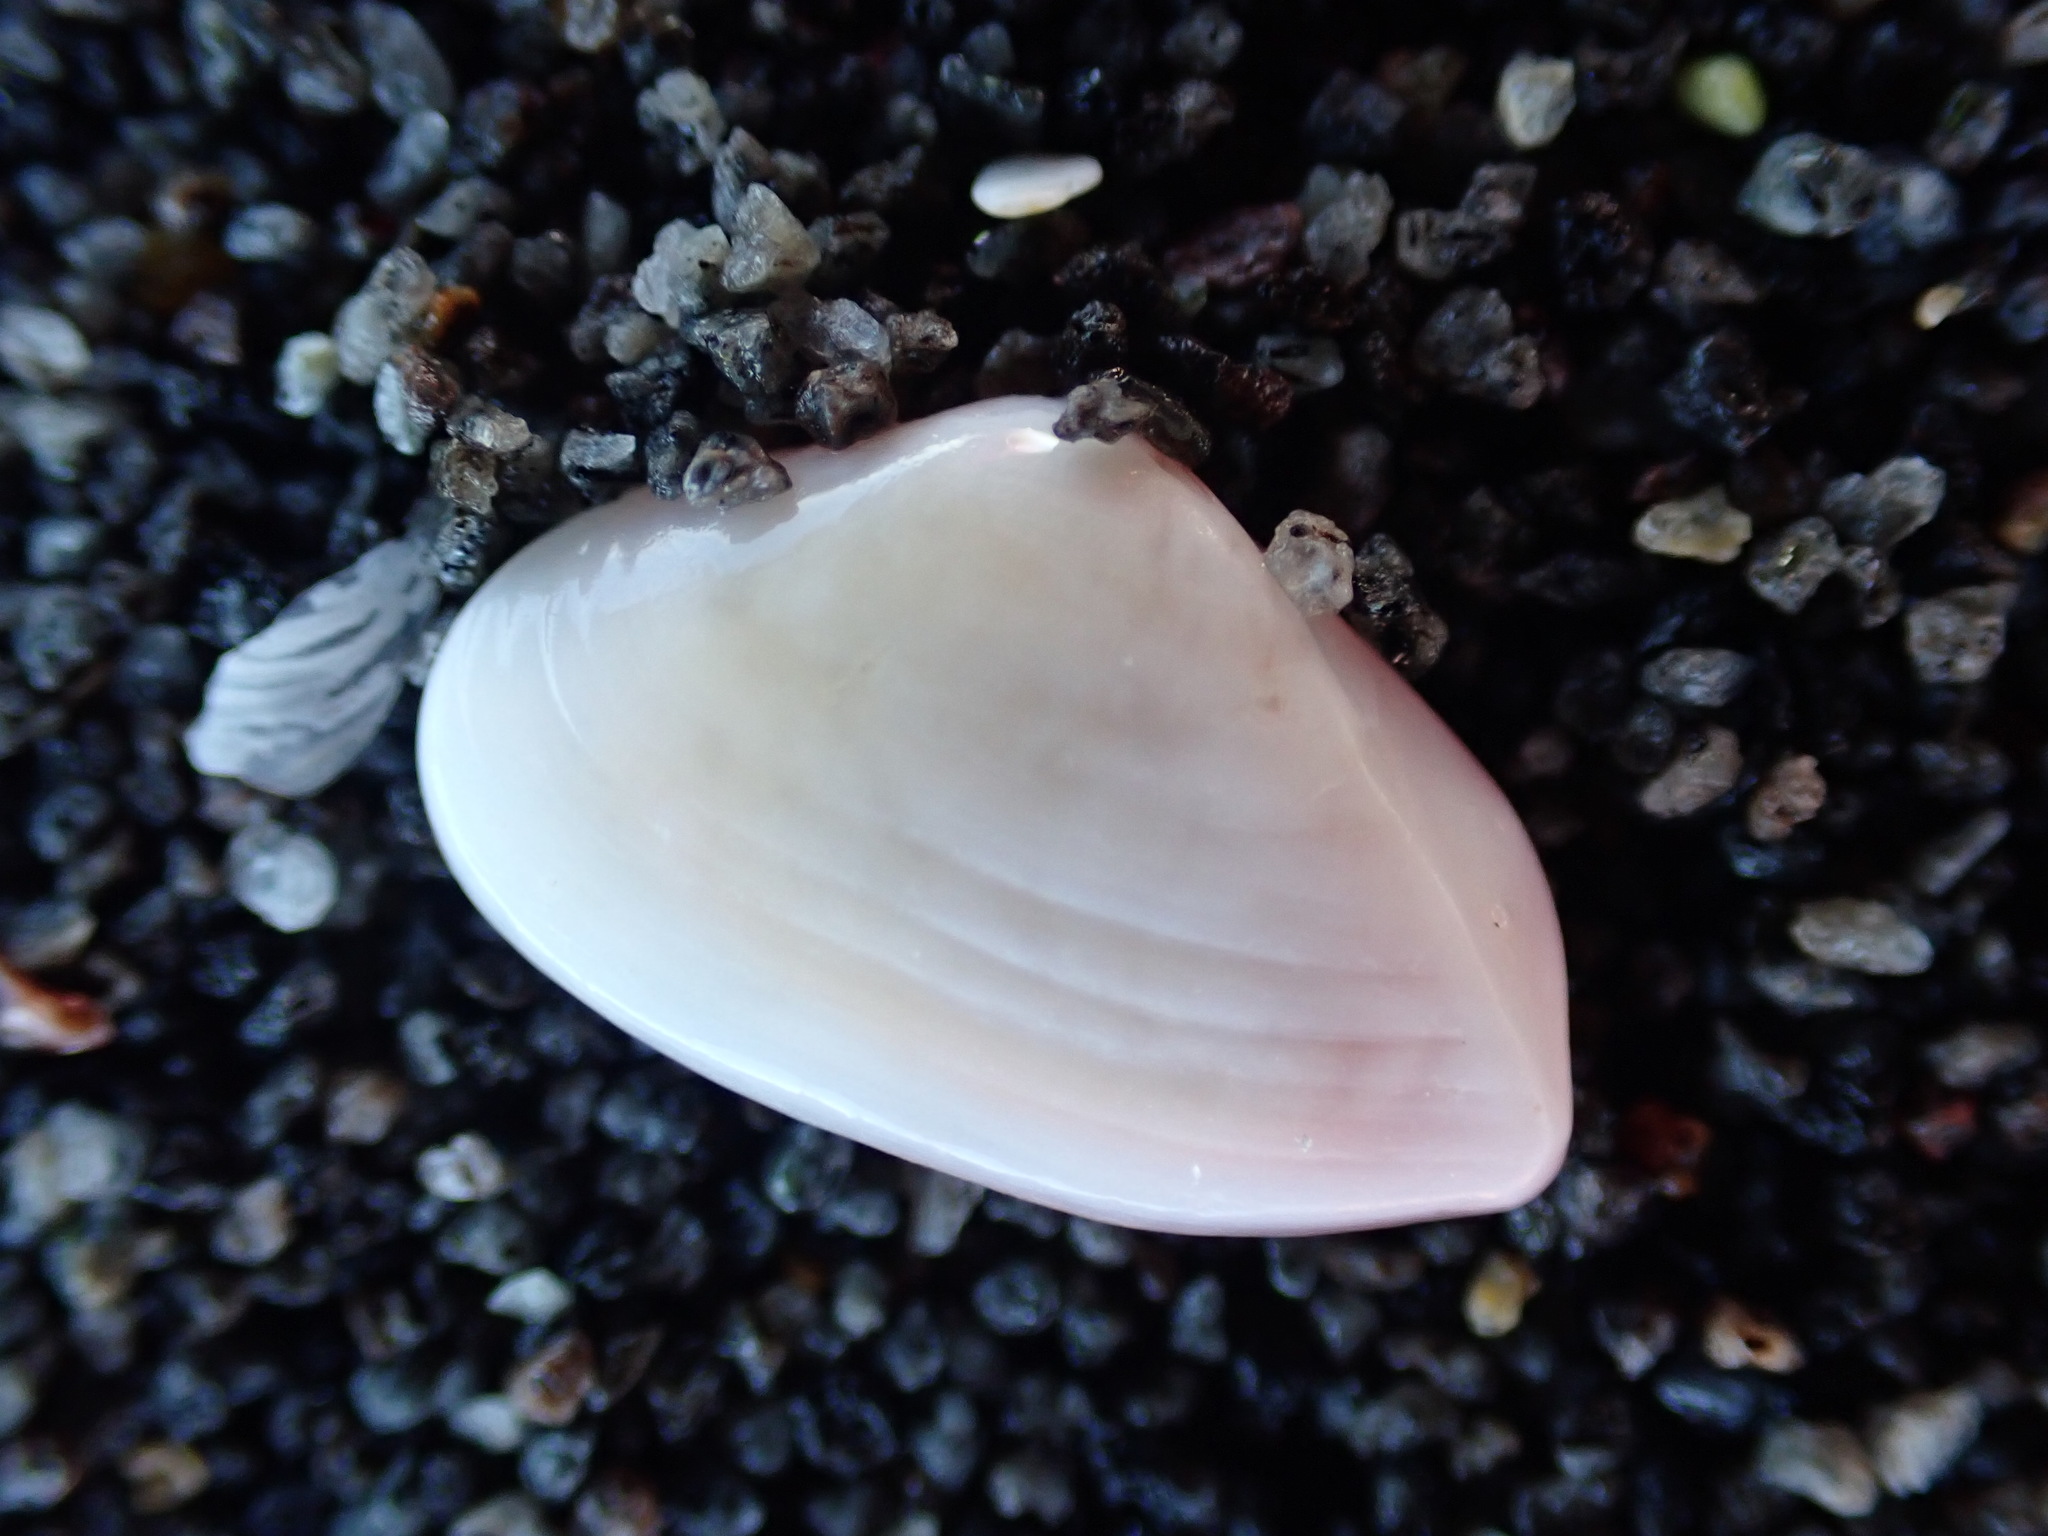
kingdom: Animalia
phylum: Mollusca
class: Bivalvia
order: Myida
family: Corbulidae
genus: Corbula
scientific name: Corbula zelandica
